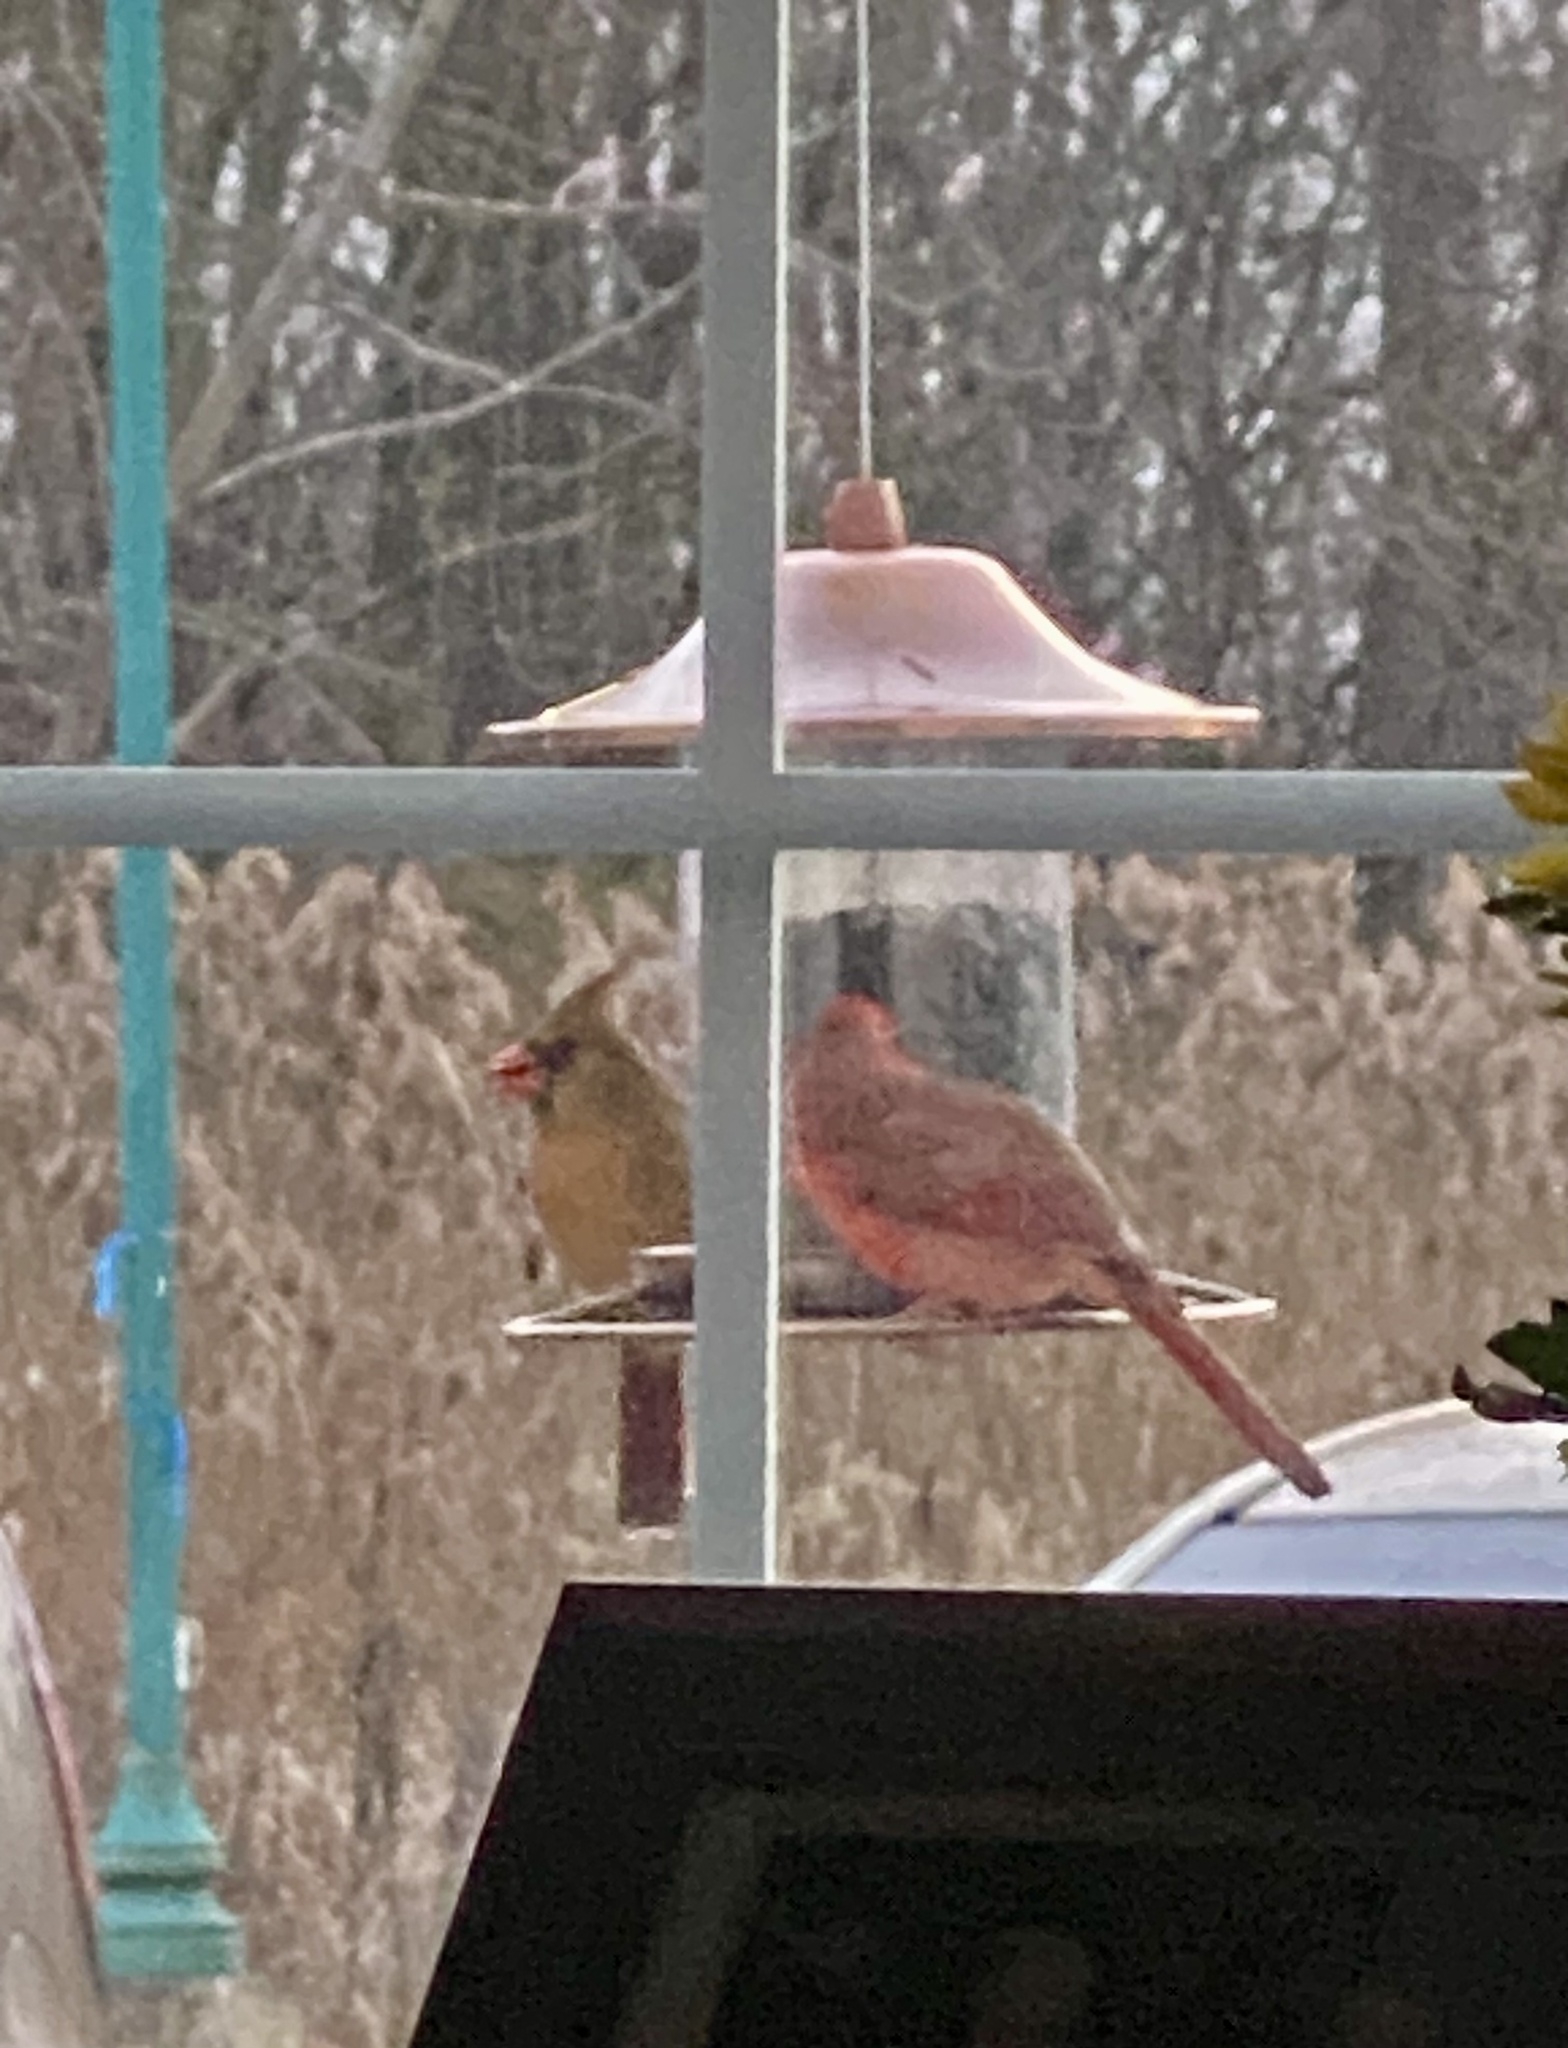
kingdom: Animalia
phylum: Chordata
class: Aves
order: Passeriformes
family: Cardinalidae
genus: Cardinalis
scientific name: Cardinalis cardinalis
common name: Northern cardinal
